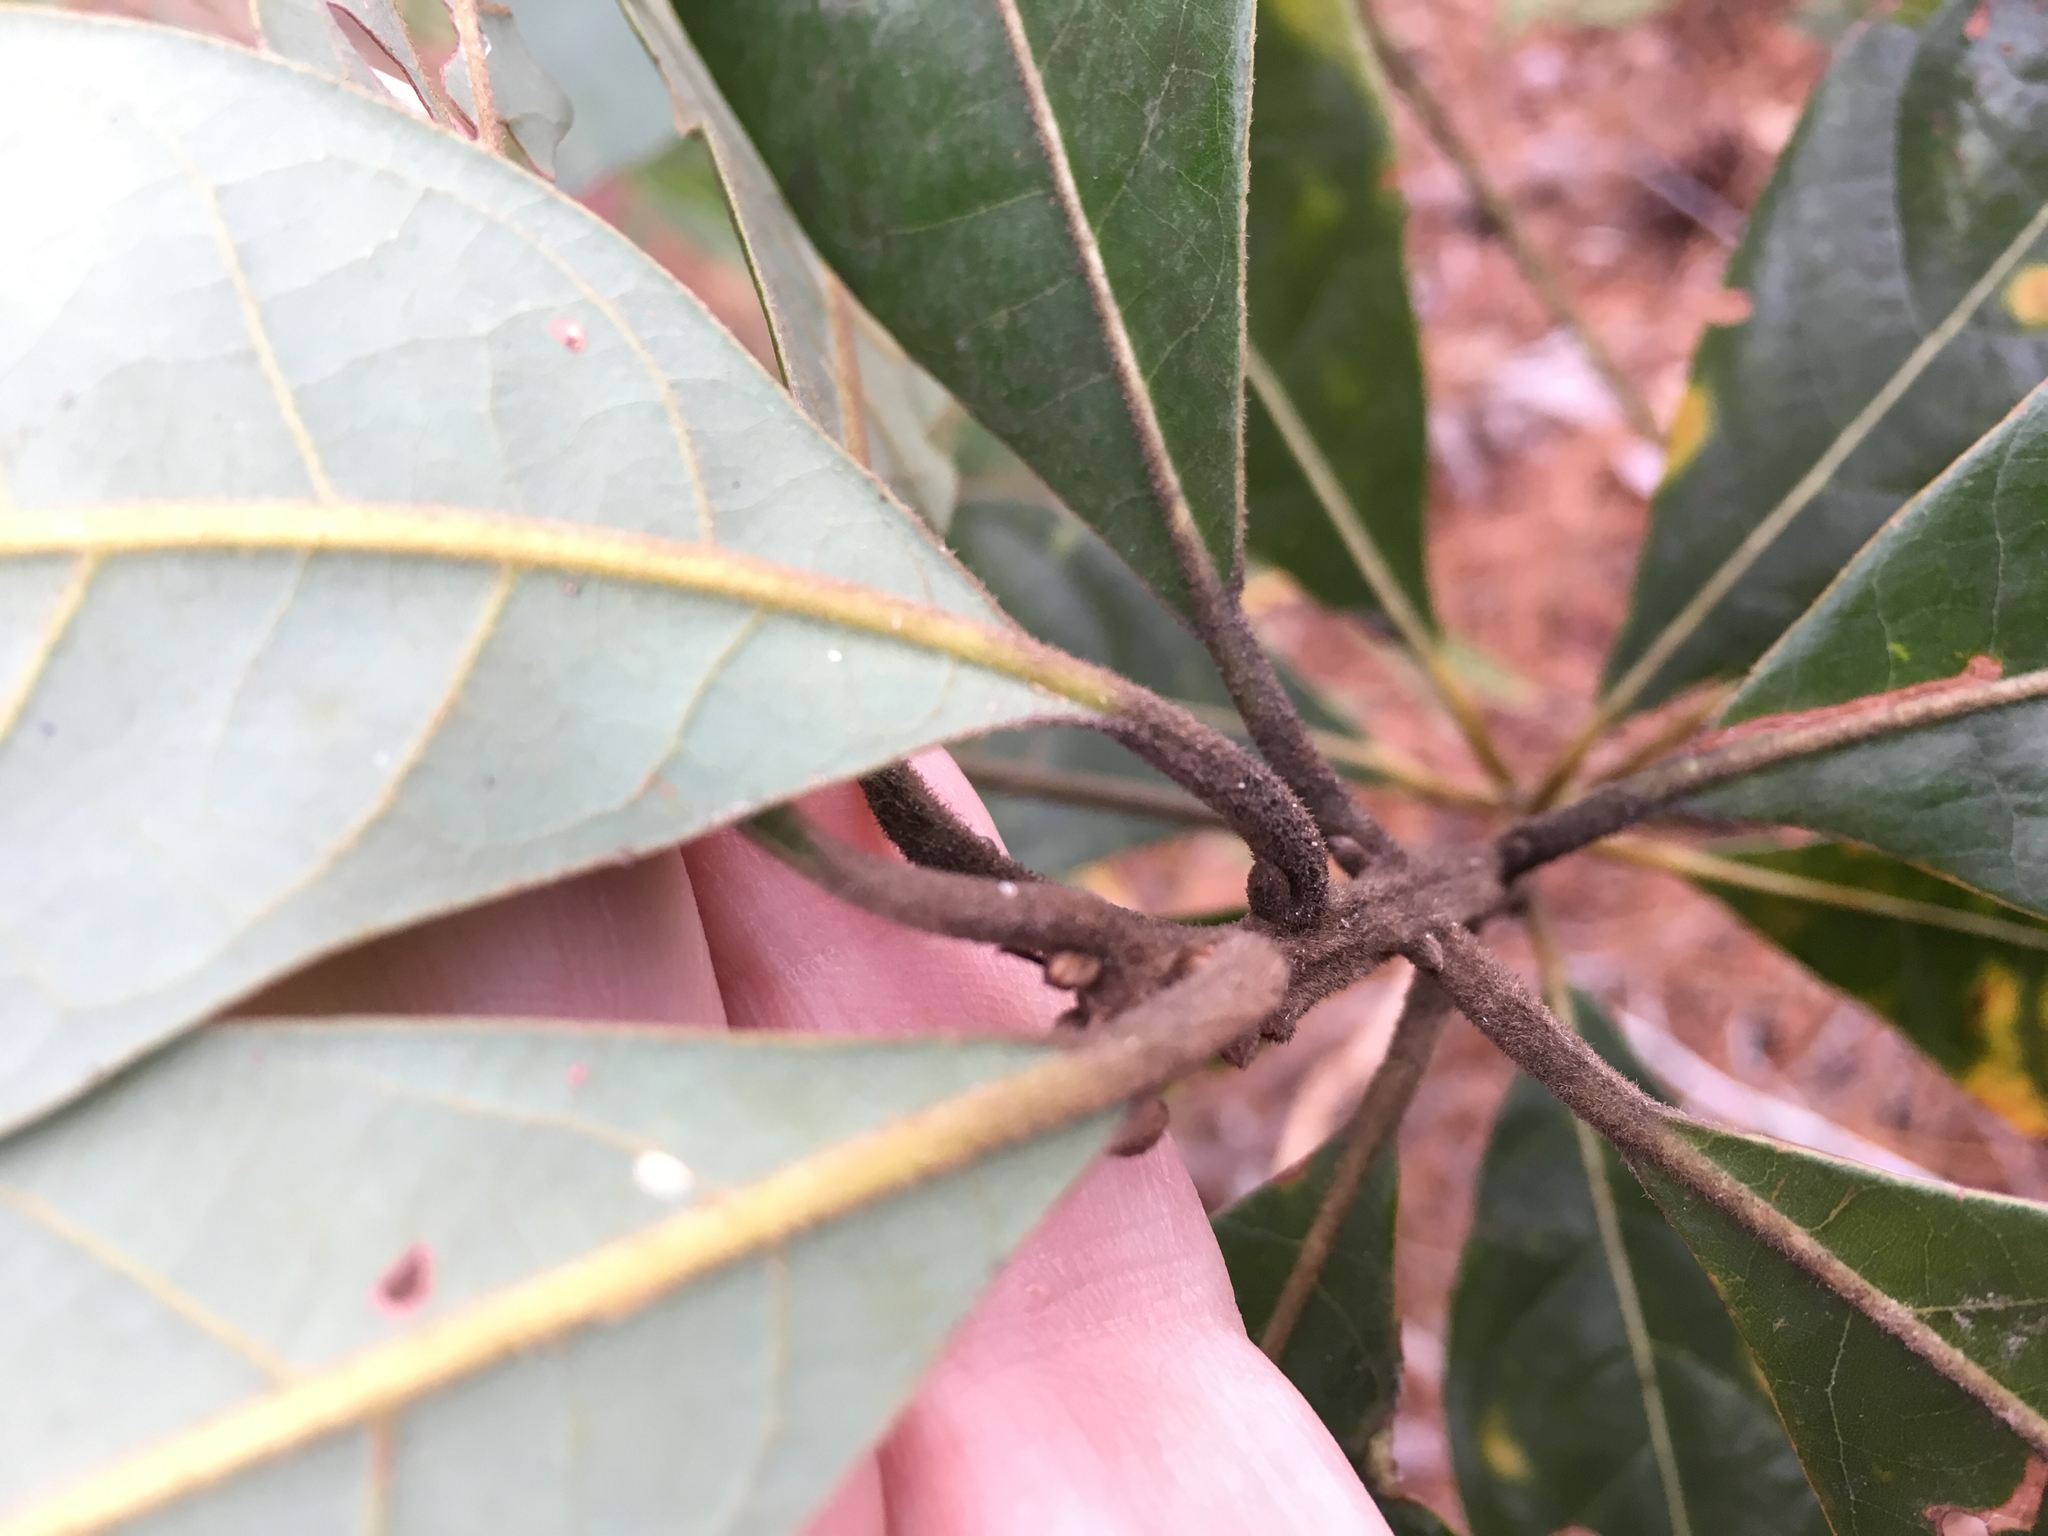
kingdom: Plantae
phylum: Tracheophyta
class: Magnoliopsida
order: Laurales
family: Lauraceae
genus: Persea
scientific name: Persea palustris
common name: Swampbay
